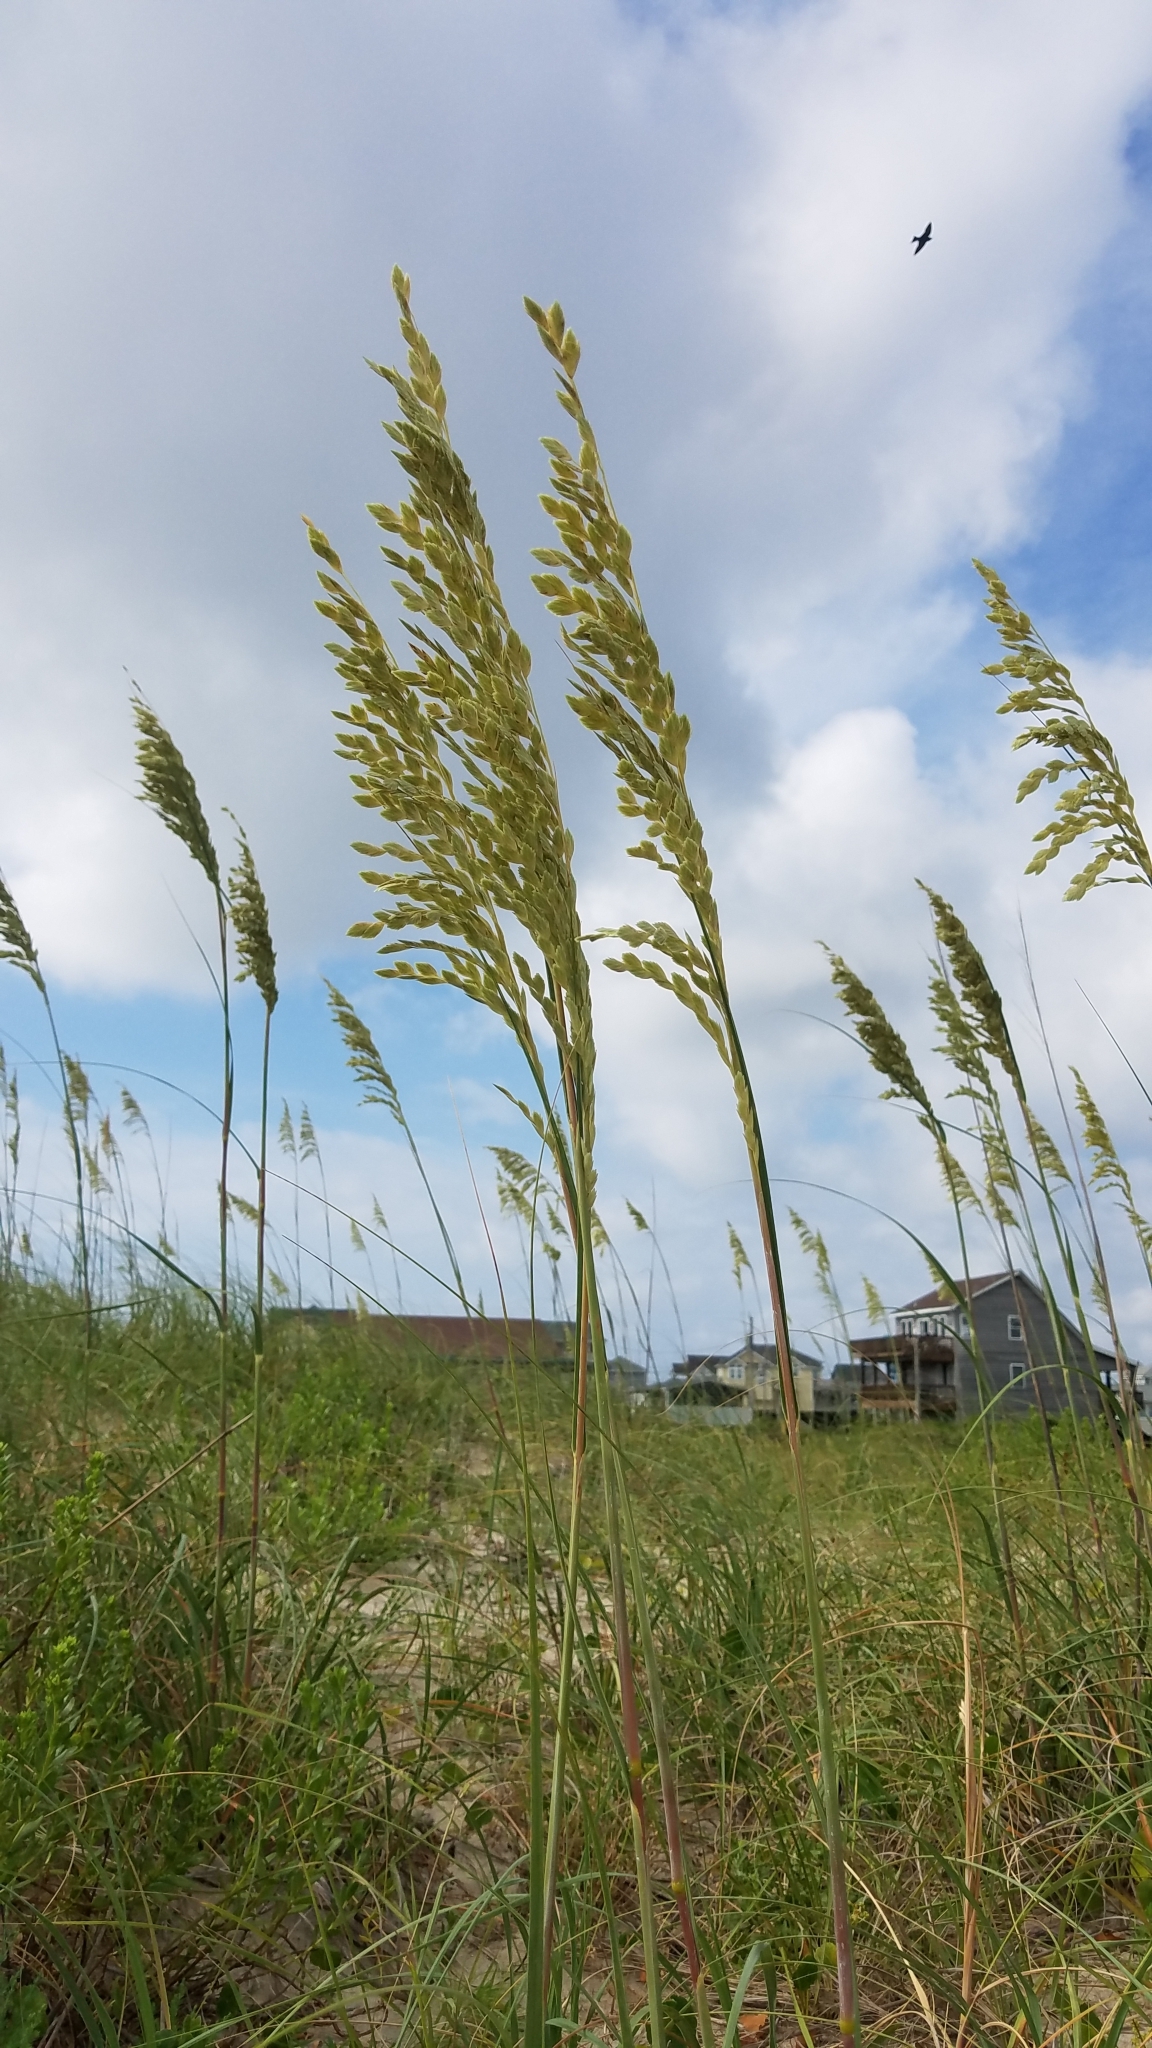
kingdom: Plantae
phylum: Tracheophyta
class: Liliopsida
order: Poales
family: Poaceae
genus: Uniola
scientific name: Uniola paniculata
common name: Seaside-oats
